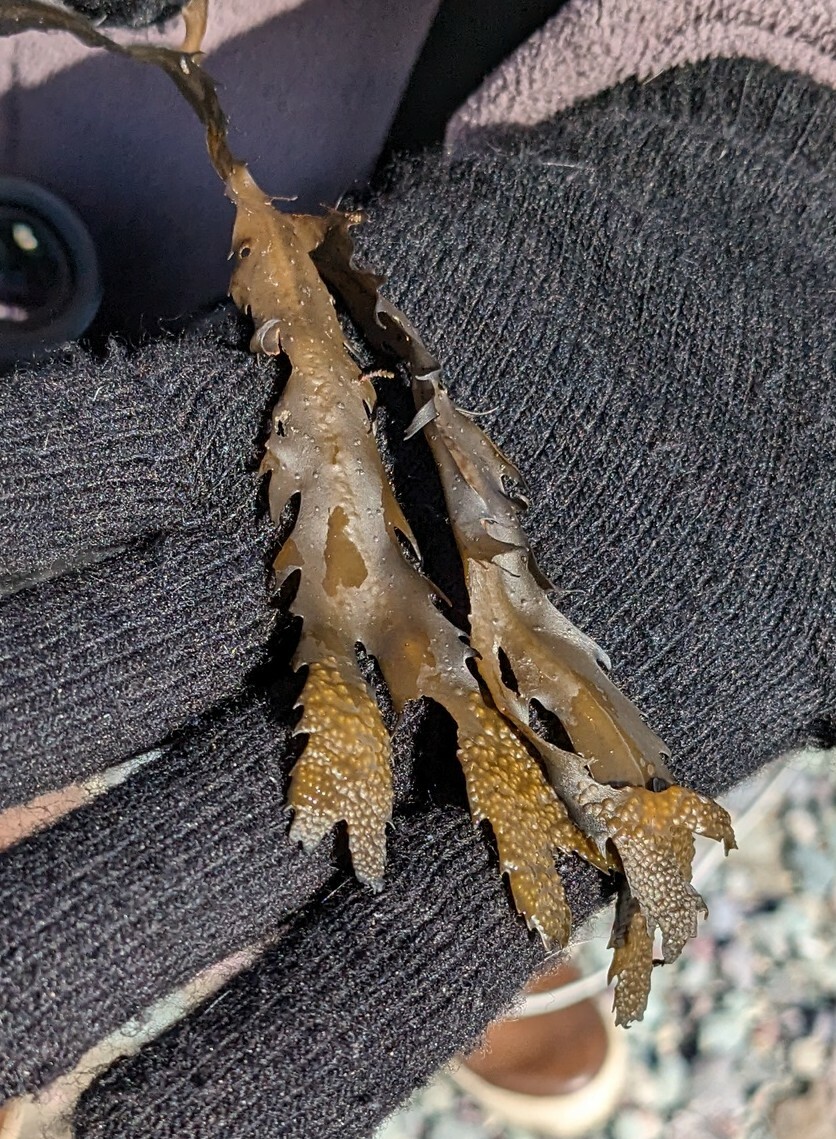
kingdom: Chromista
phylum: Ochrophyta
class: Phaeophyceae
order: Fucales
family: Fucaceae
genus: Fucus
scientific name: Fucus serratus
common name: Toothed wrack
